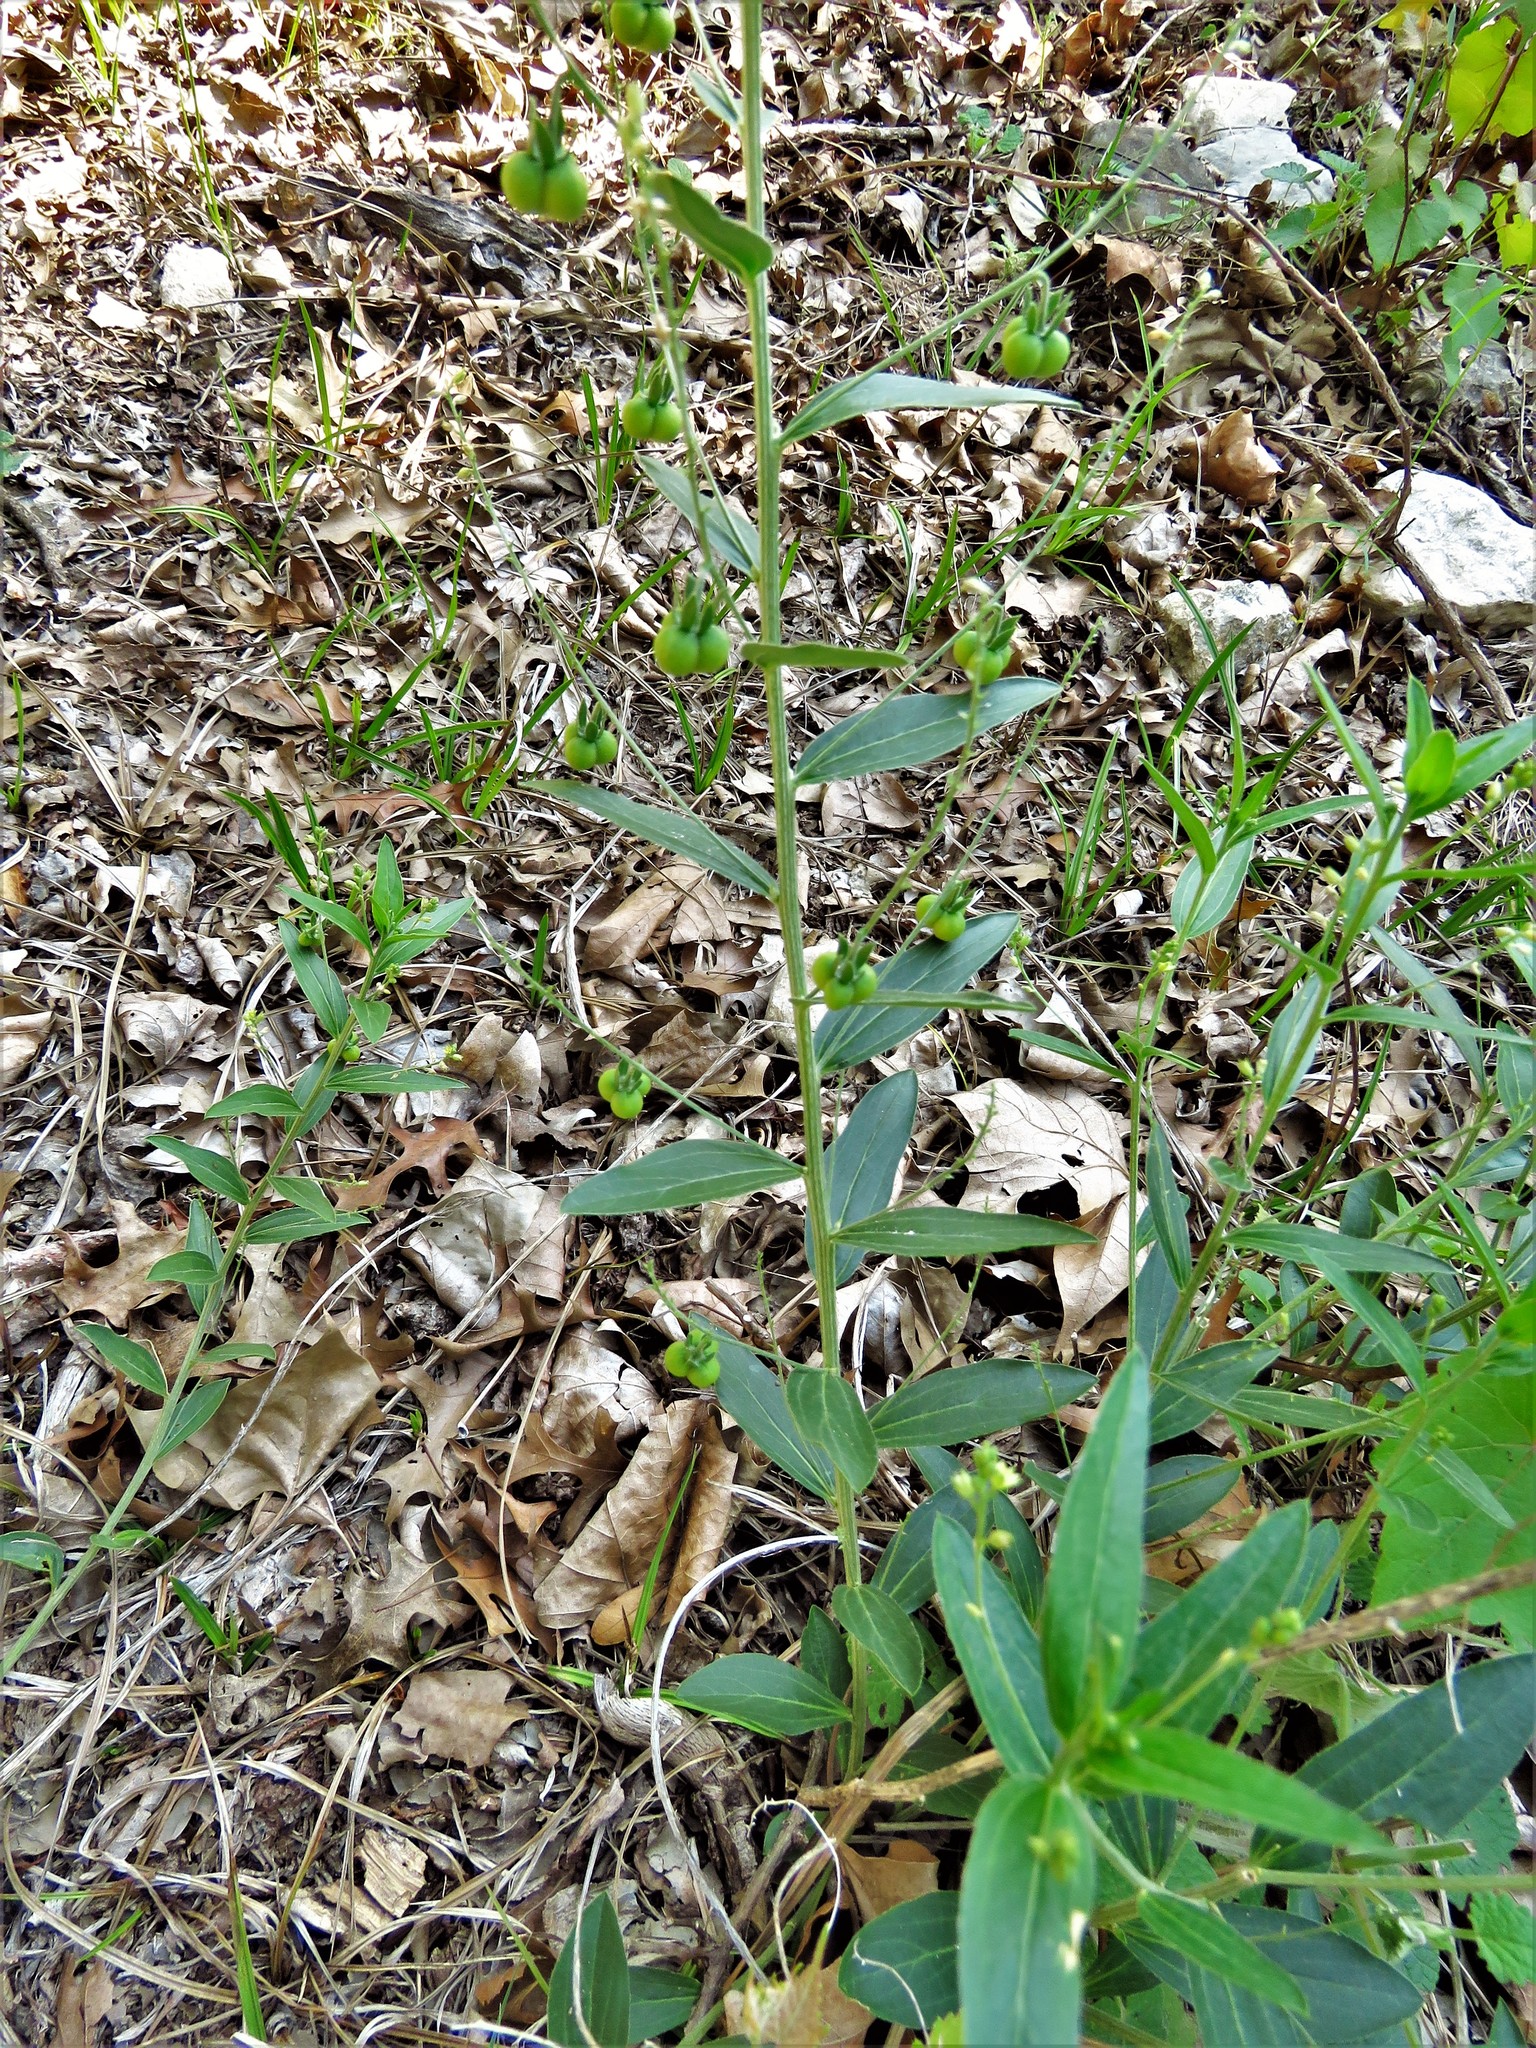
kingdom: Plantae
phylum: Tracheophyta
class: Magnoliopsida
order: Malpighiales
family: Euphorbiaceae
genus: Ditaxis
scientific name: Ditaxis mercurialina
